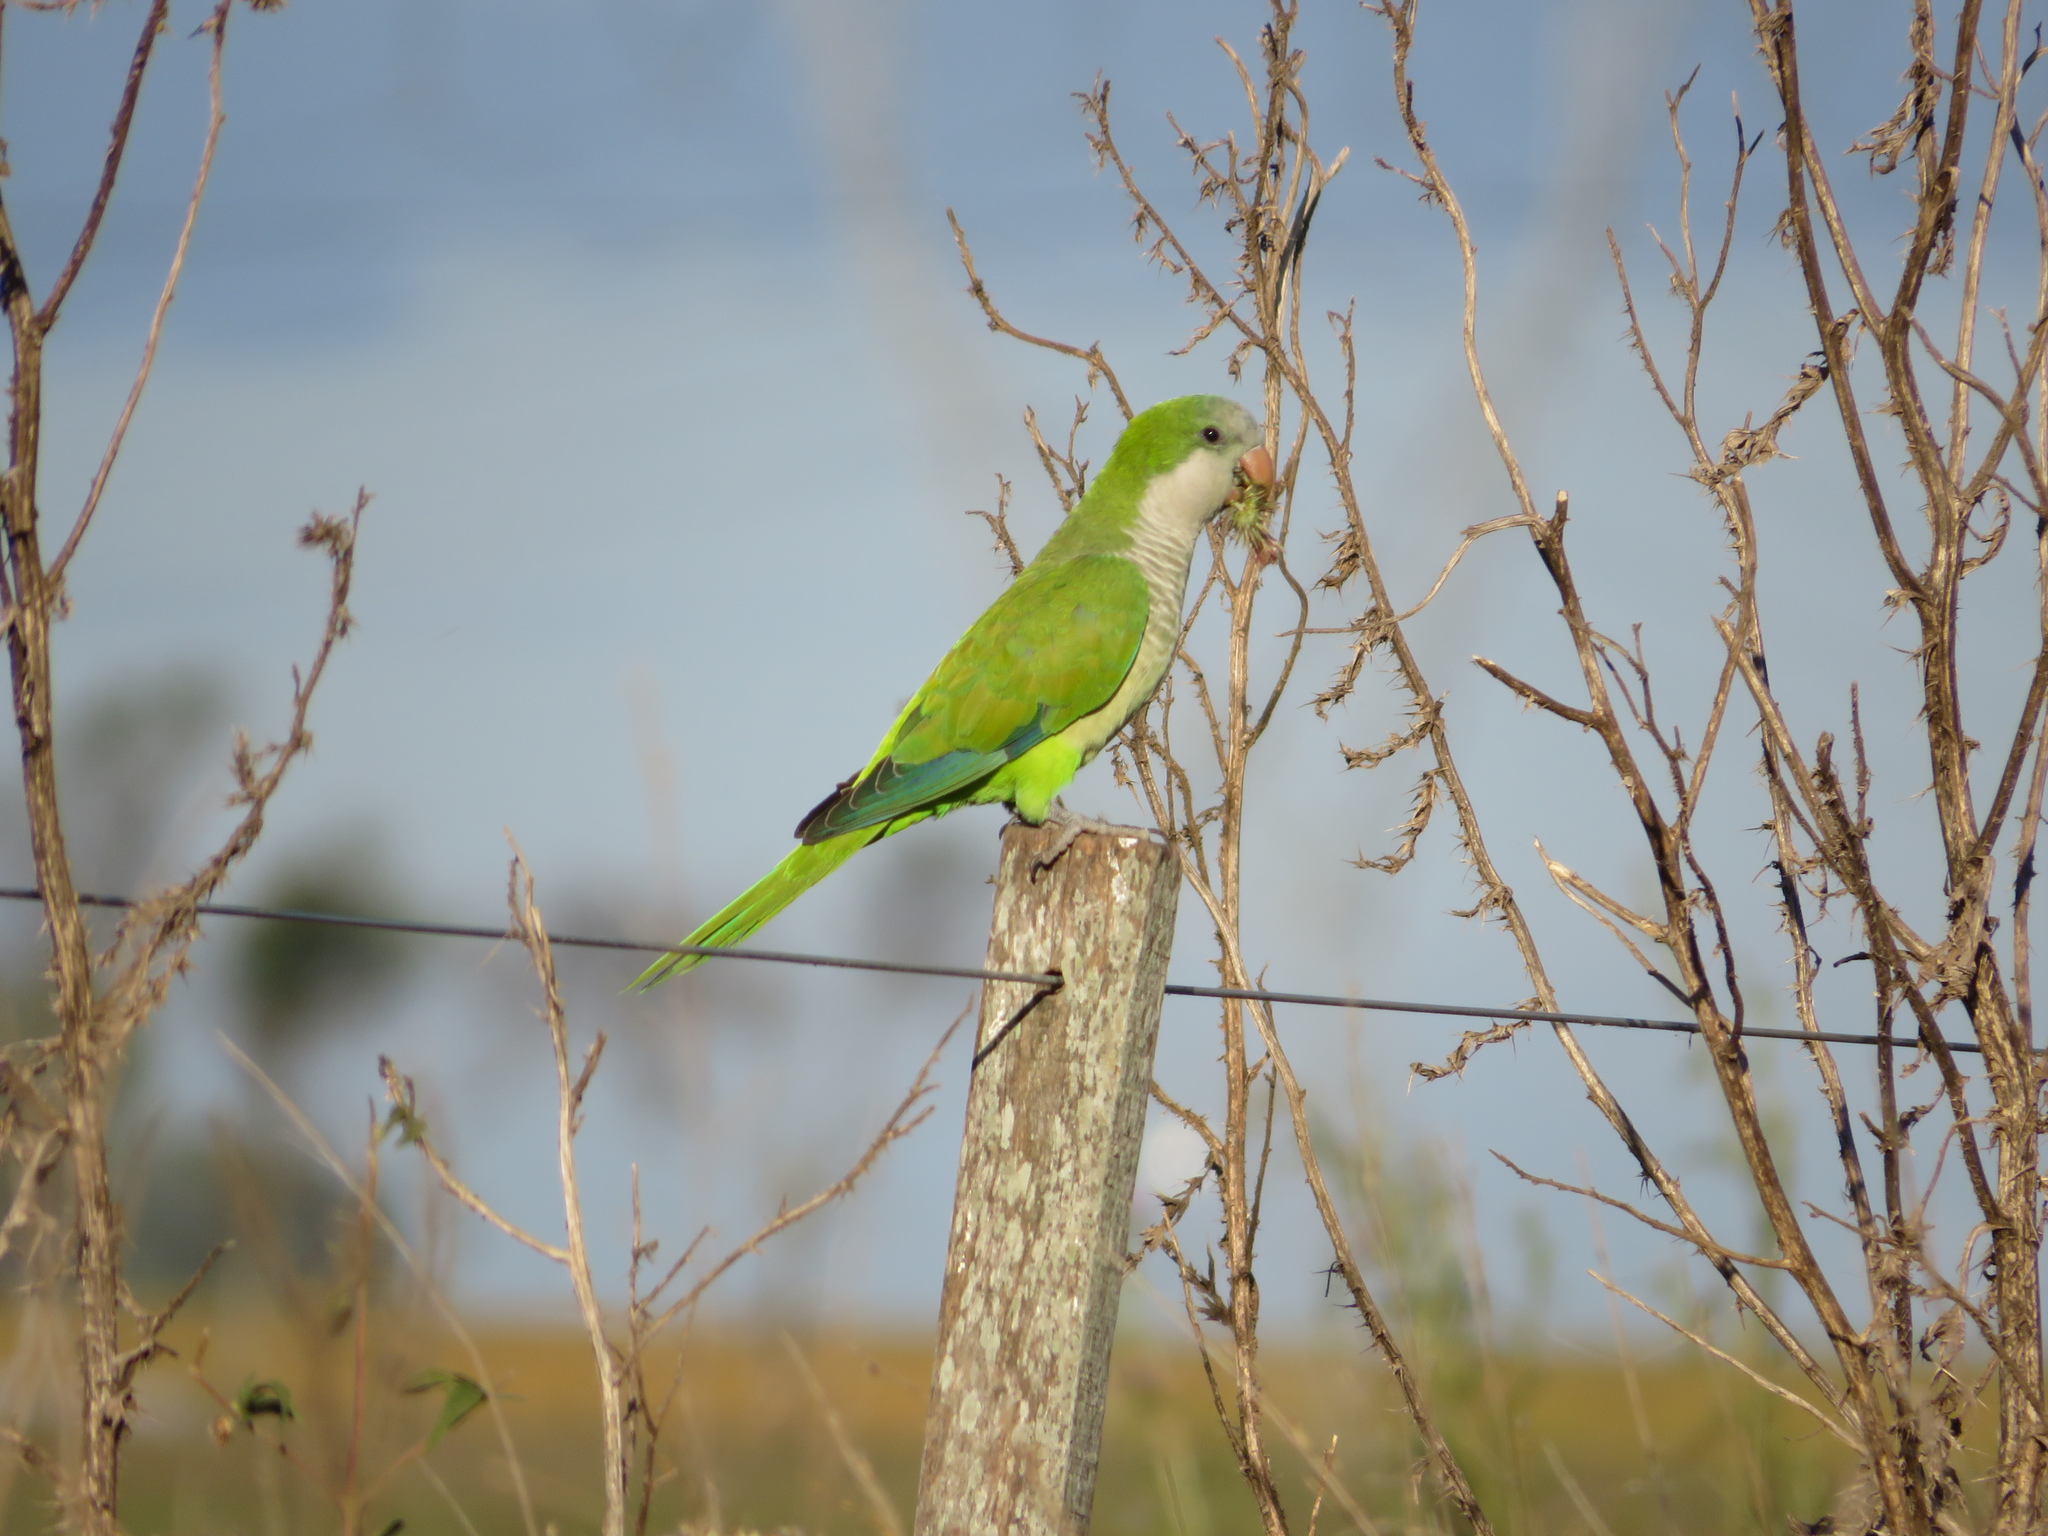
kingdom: Animalia
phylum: Chordata
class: Aves
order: Psittaciformes
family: Psittacidae
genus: Myiopsitta
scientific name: Myiopsitta monachus
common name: Monk parakeet
